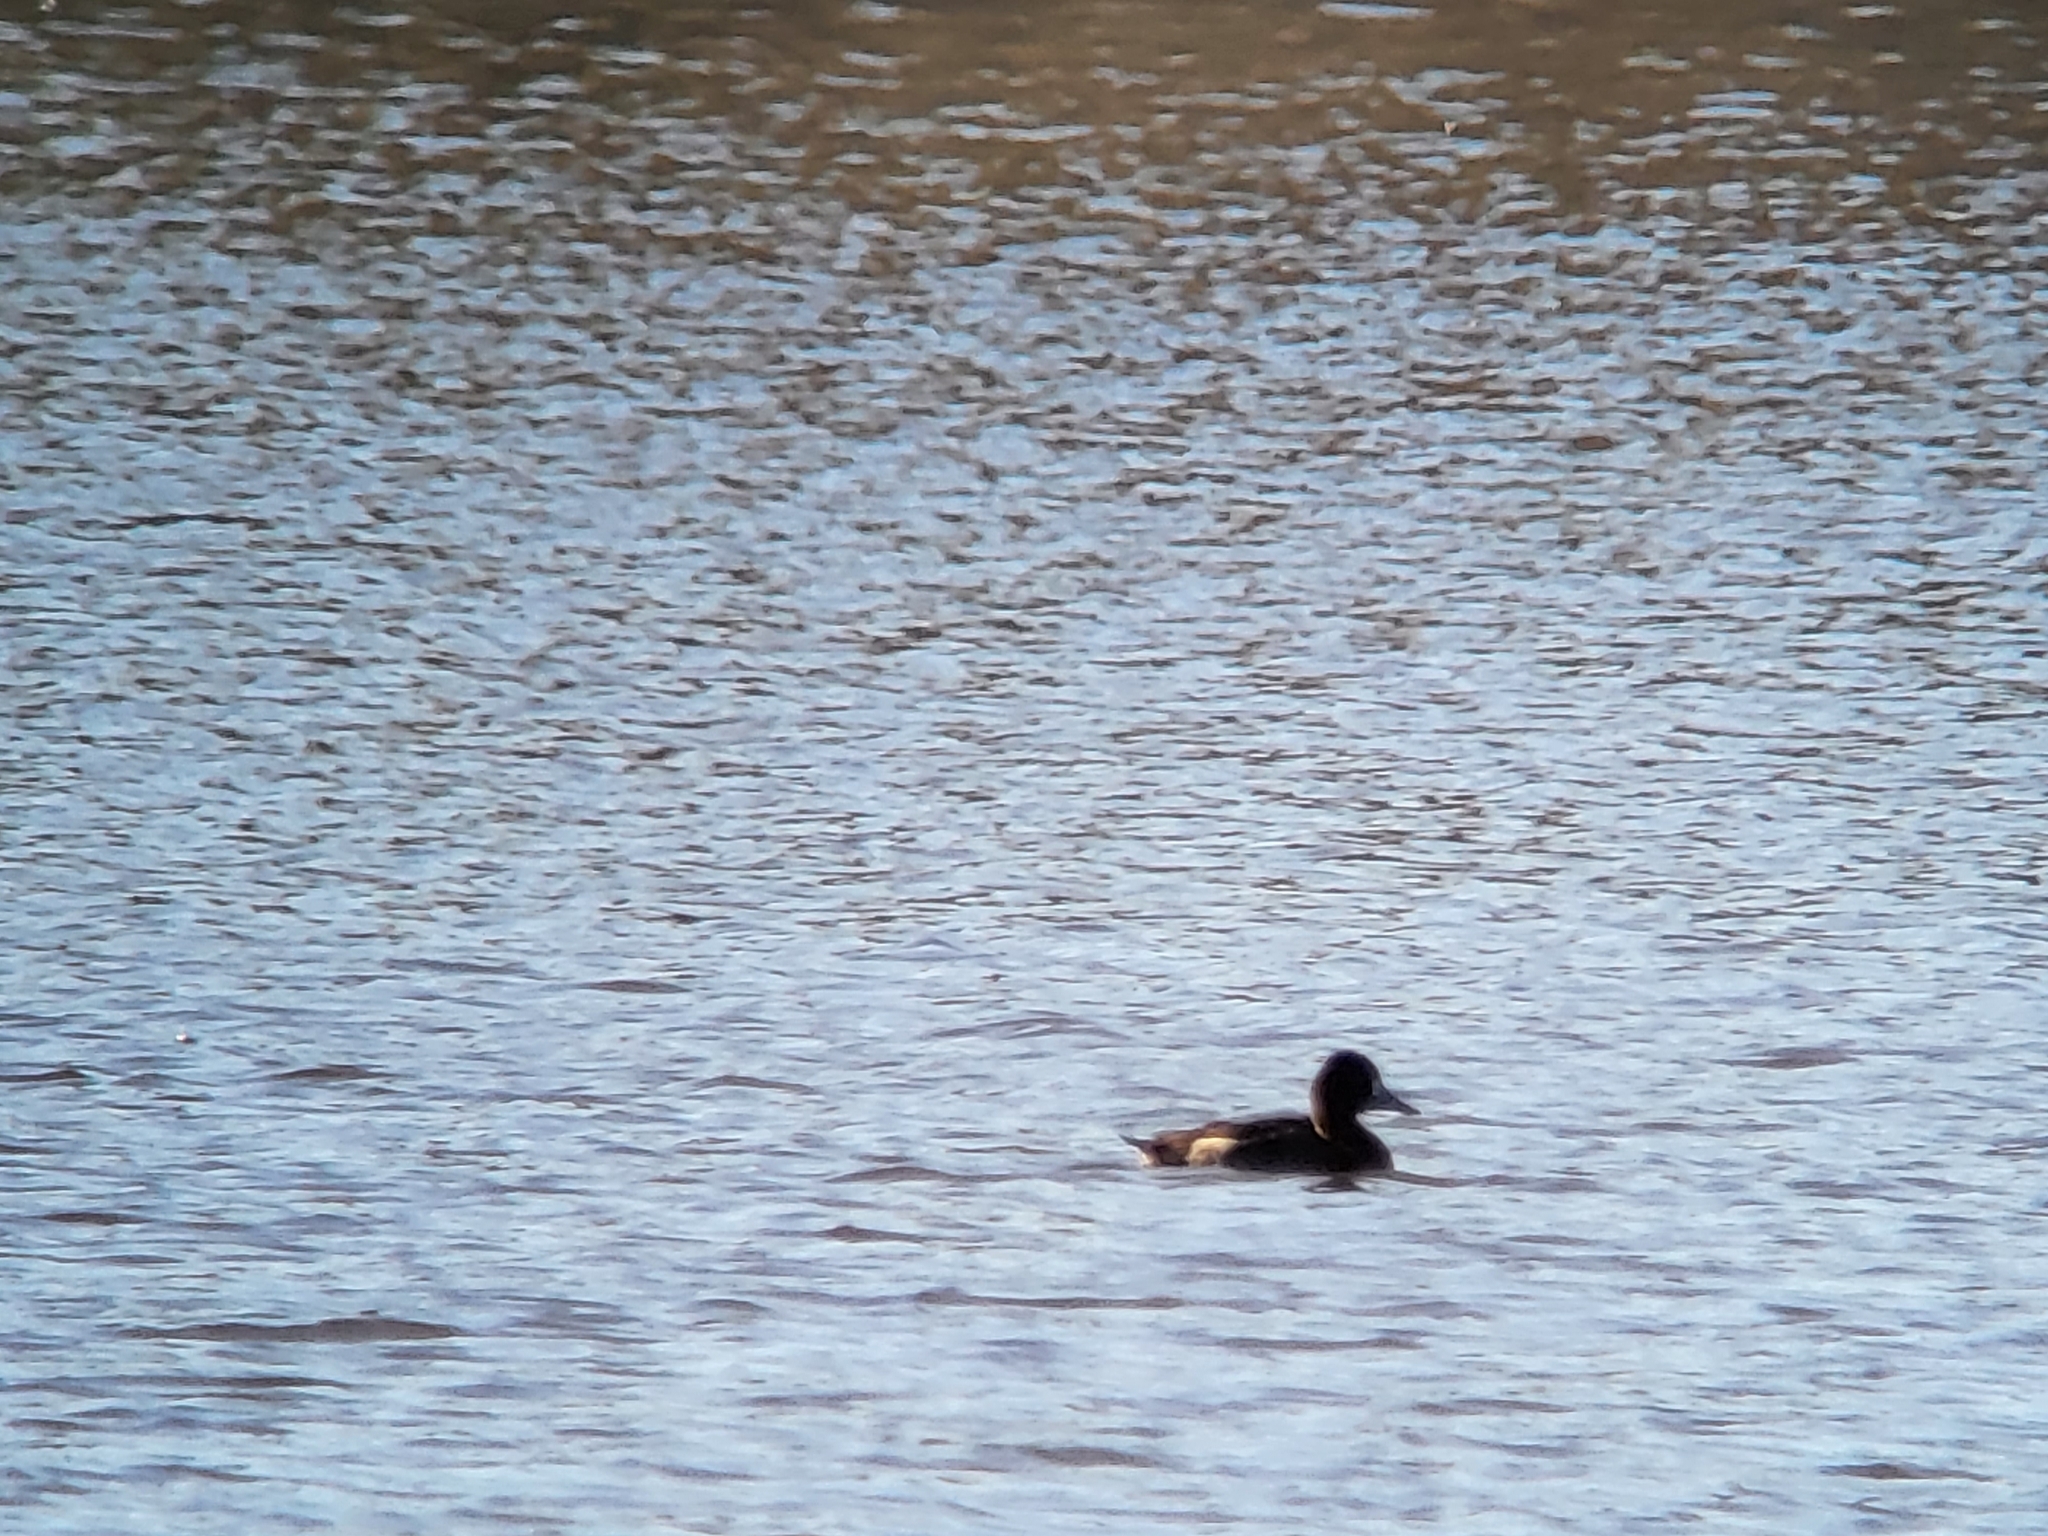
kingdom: Animalia
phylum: Chordata
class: Aves
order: Anseriformes
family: Anatidae
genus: Aythya
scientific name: Aythya affinis
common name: Lesser scaup
